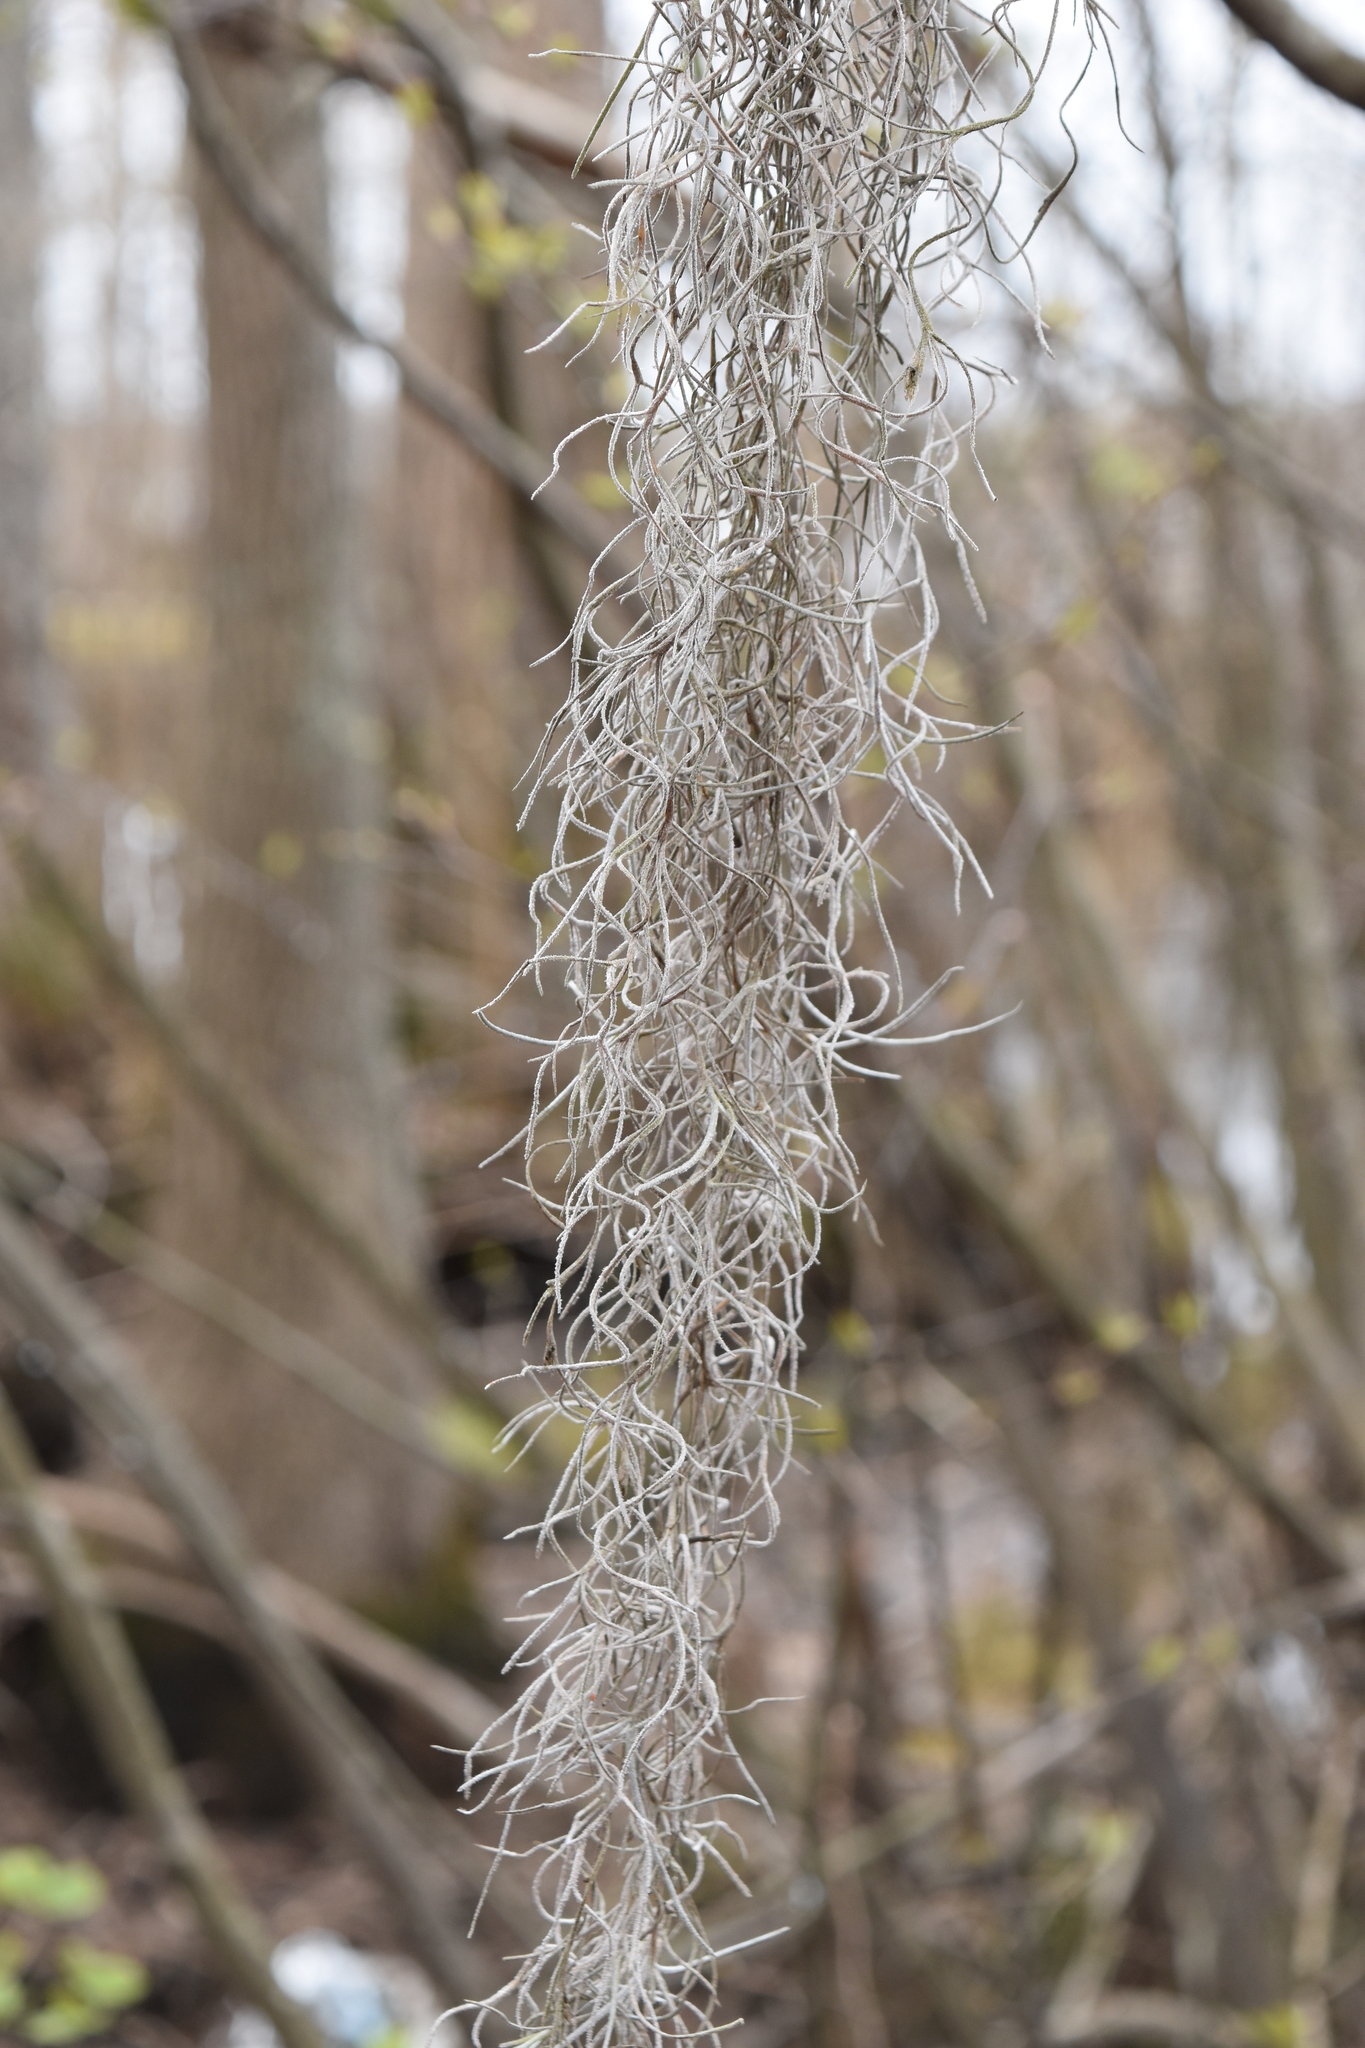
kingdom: Plantae
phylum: Tracheophyta
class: Liliopsida
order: Poales
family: Bromeliaceae
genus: Tillandsia
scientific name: Tillandsia usneoides
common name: Spanish moss
